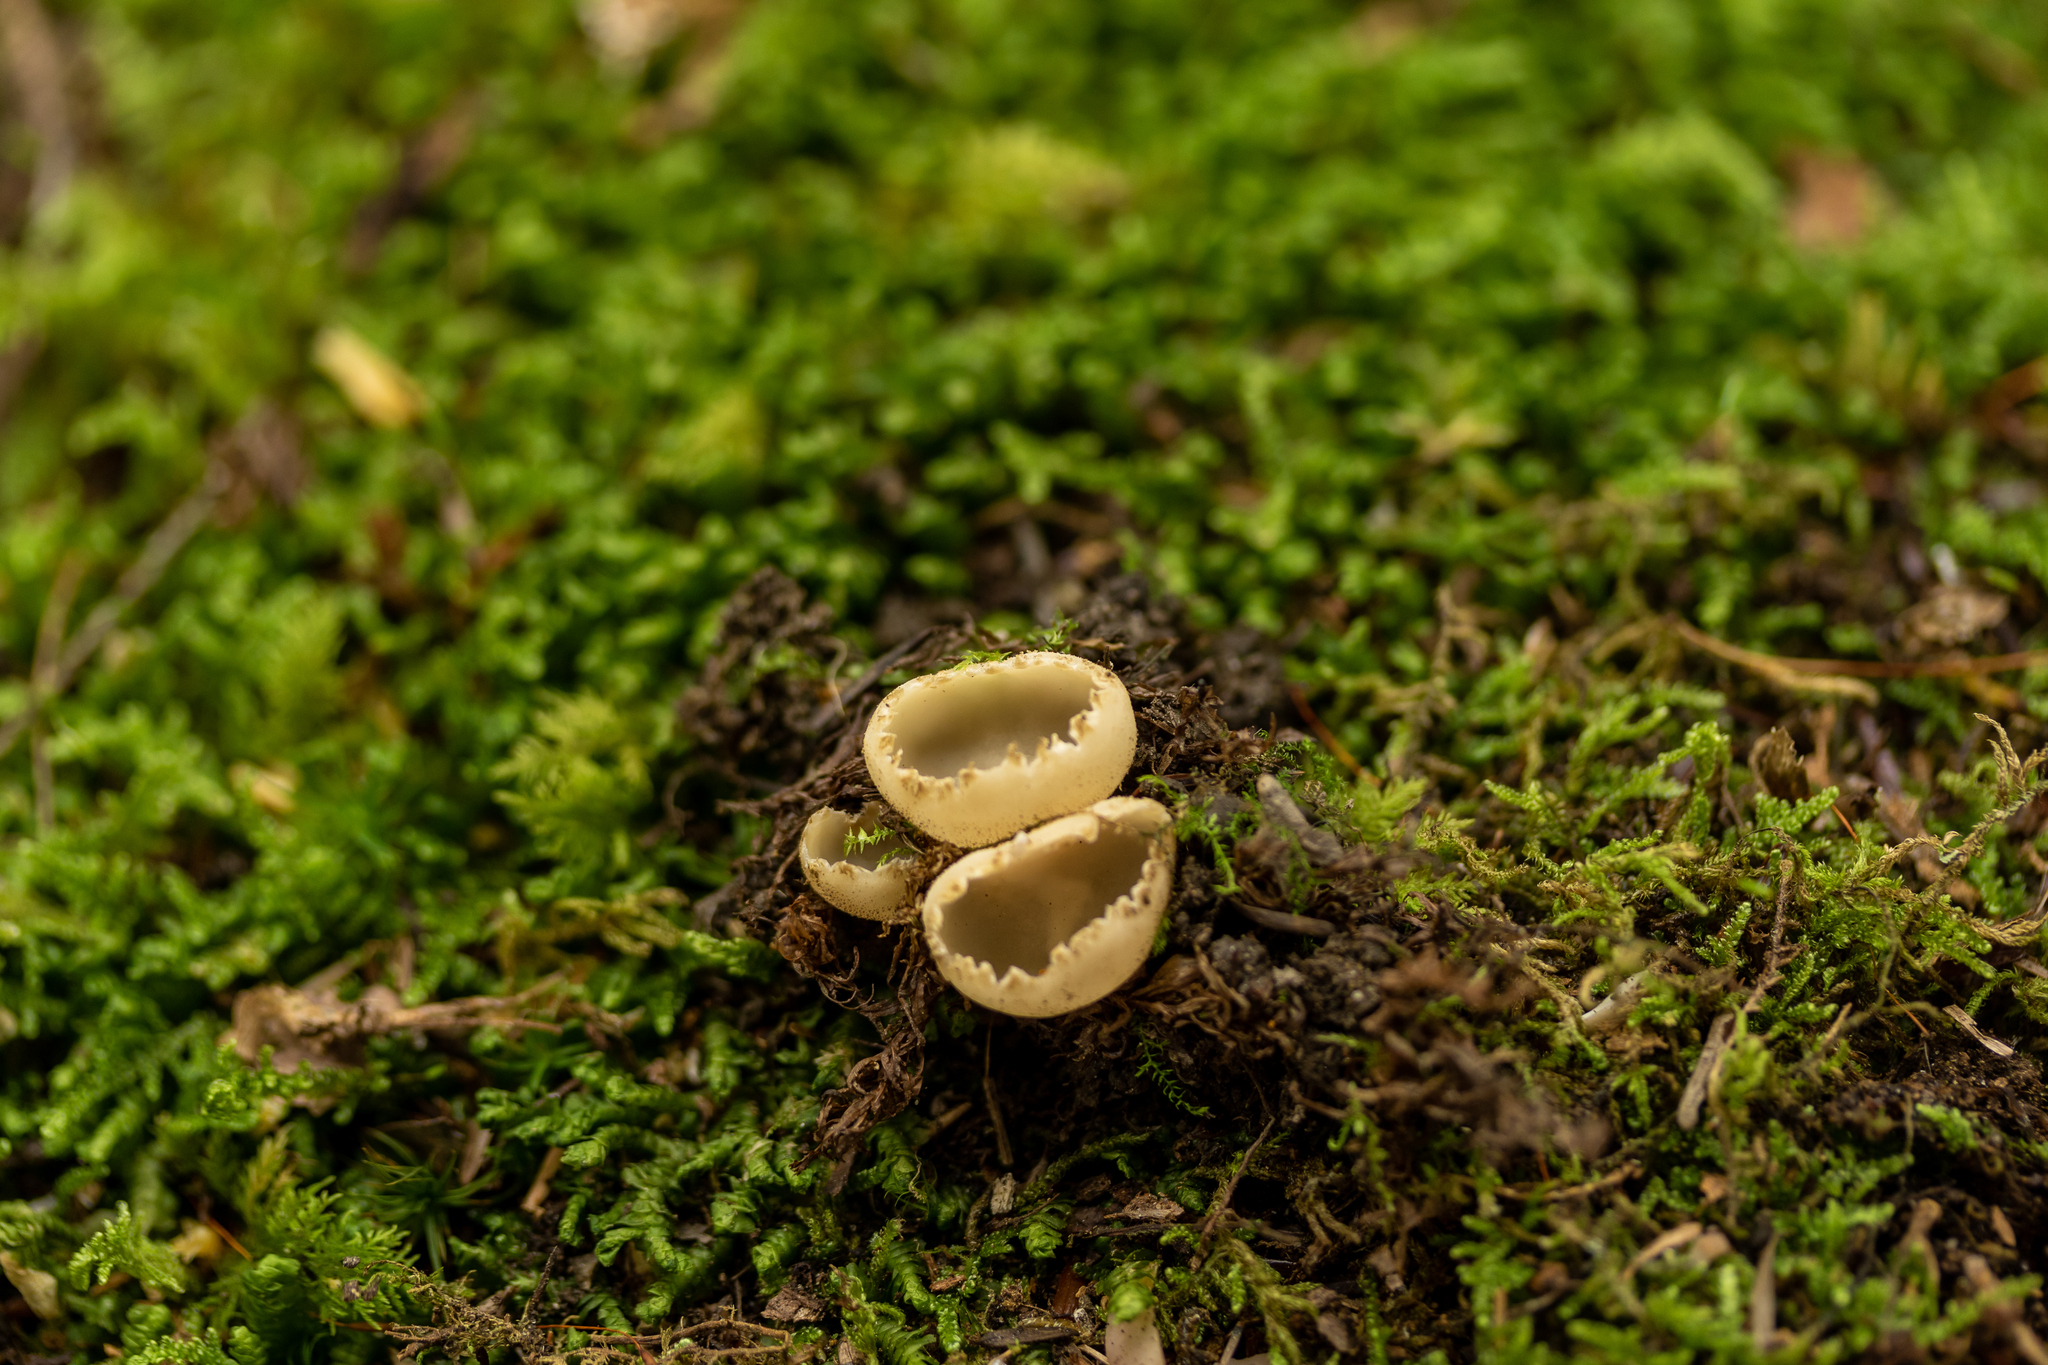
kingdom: Fungi
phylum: Ascomycota
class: Pezizomycetes
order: Pezizales
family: Tarzettaceae
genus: Tarzetta
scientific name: Tarzetta cupularis
